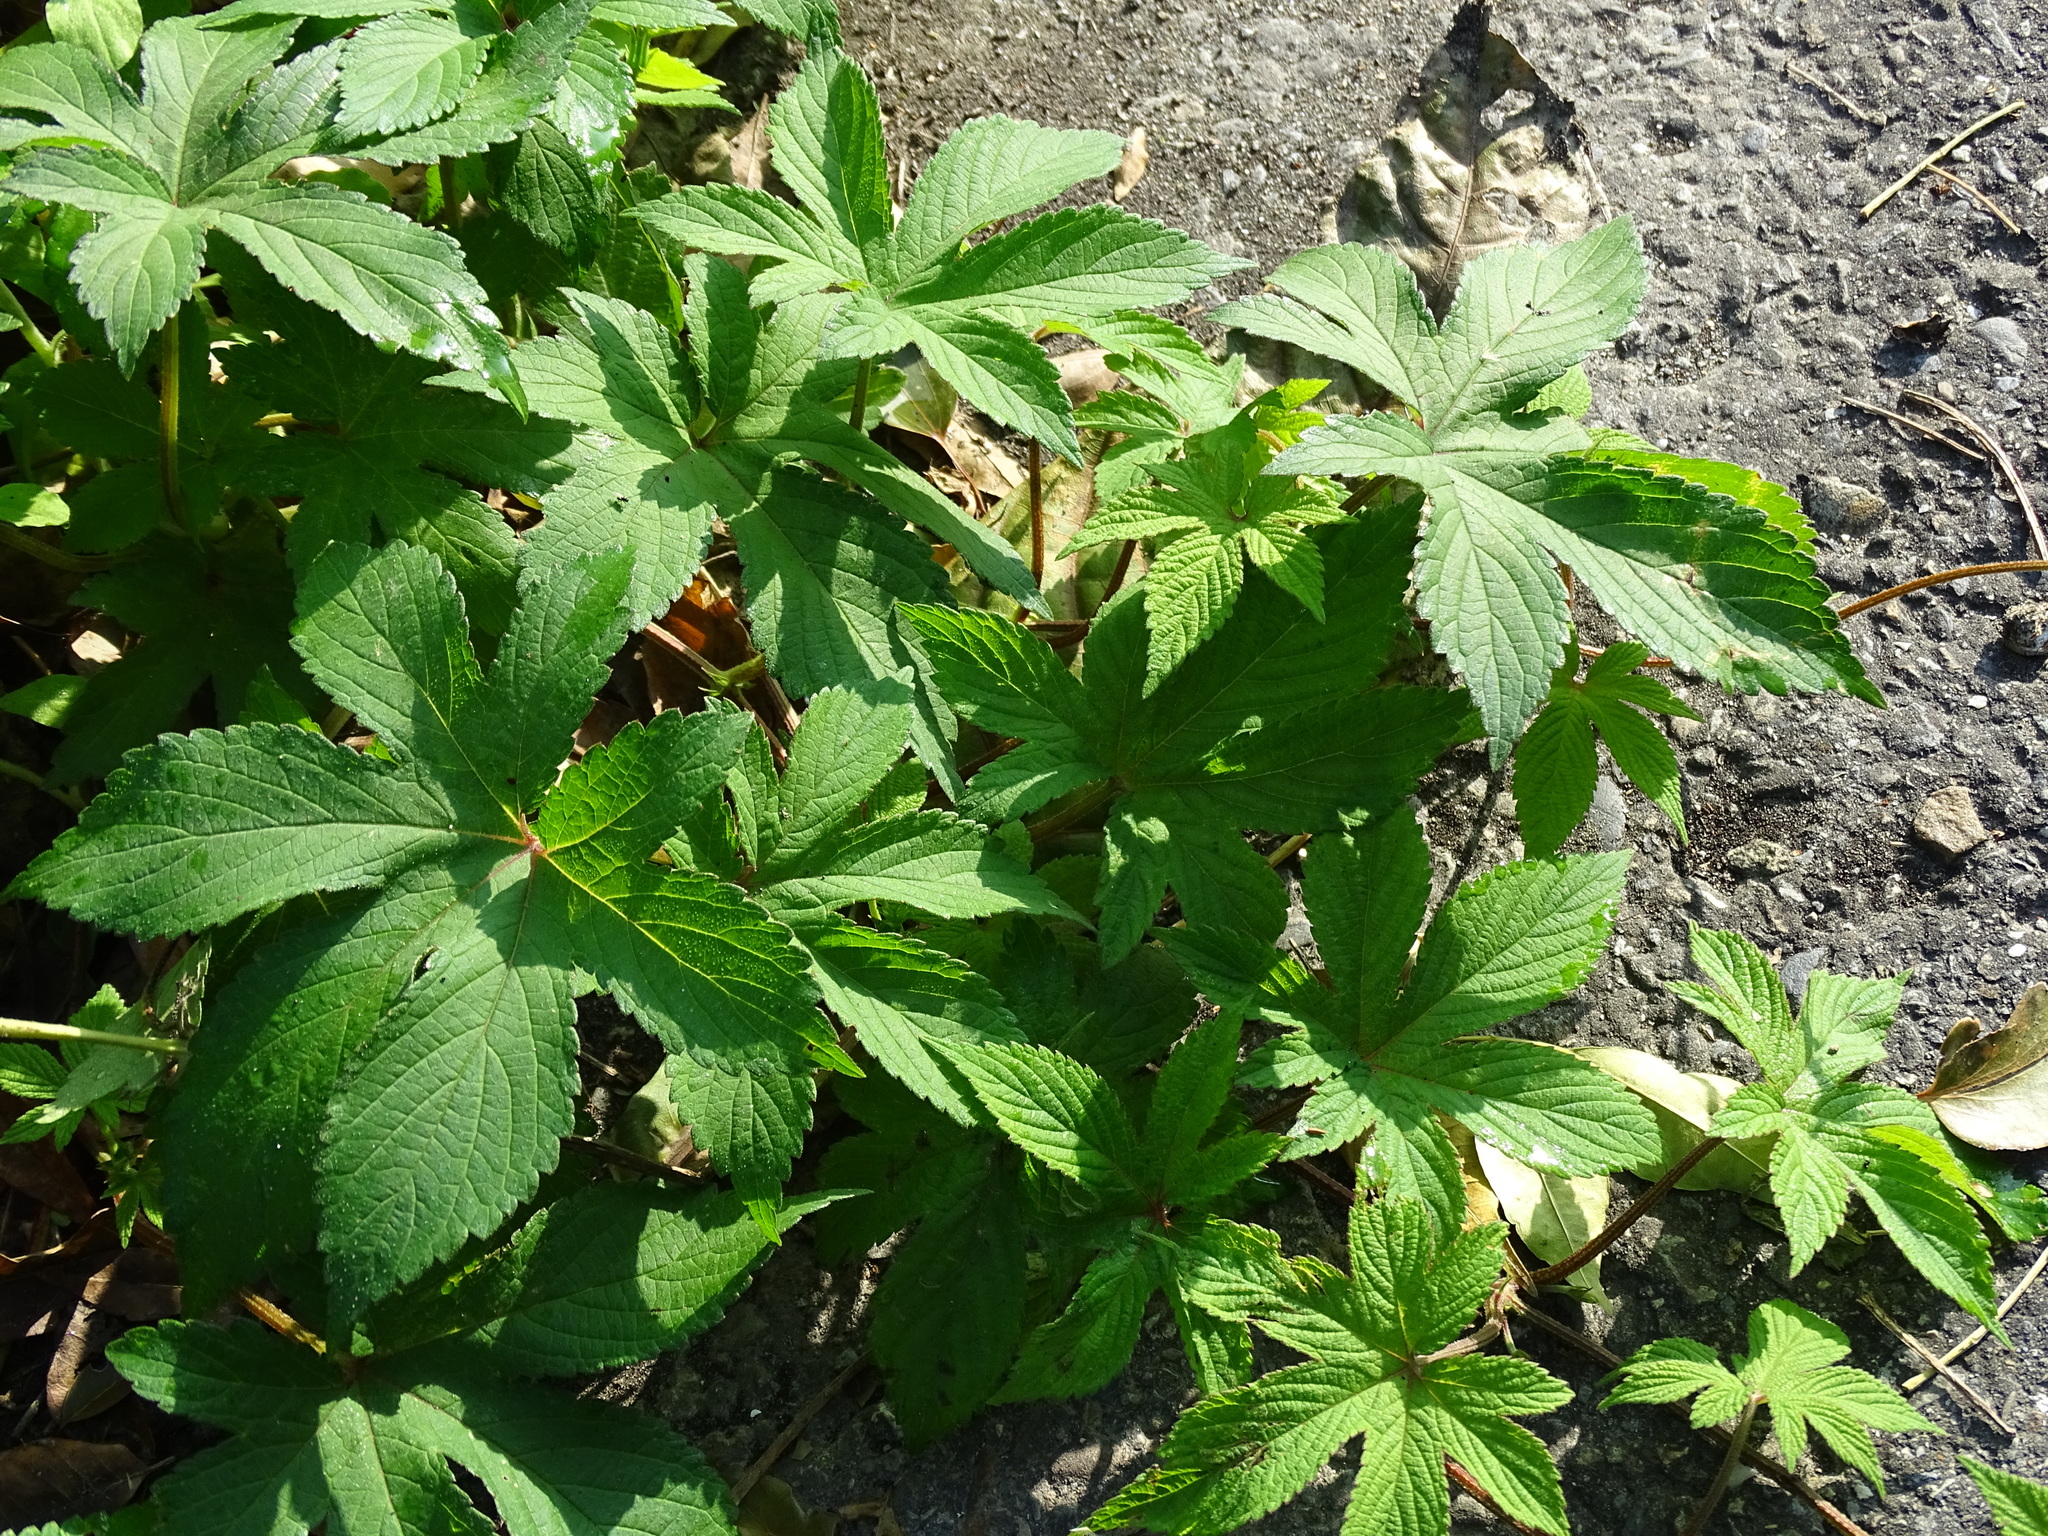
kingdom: Plantae
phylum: Tracheophyta
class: Magnoliopsida
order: Rosales
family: Cannabaceae
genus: Humulus
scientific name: Humulus scandens
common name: Japanese hop
